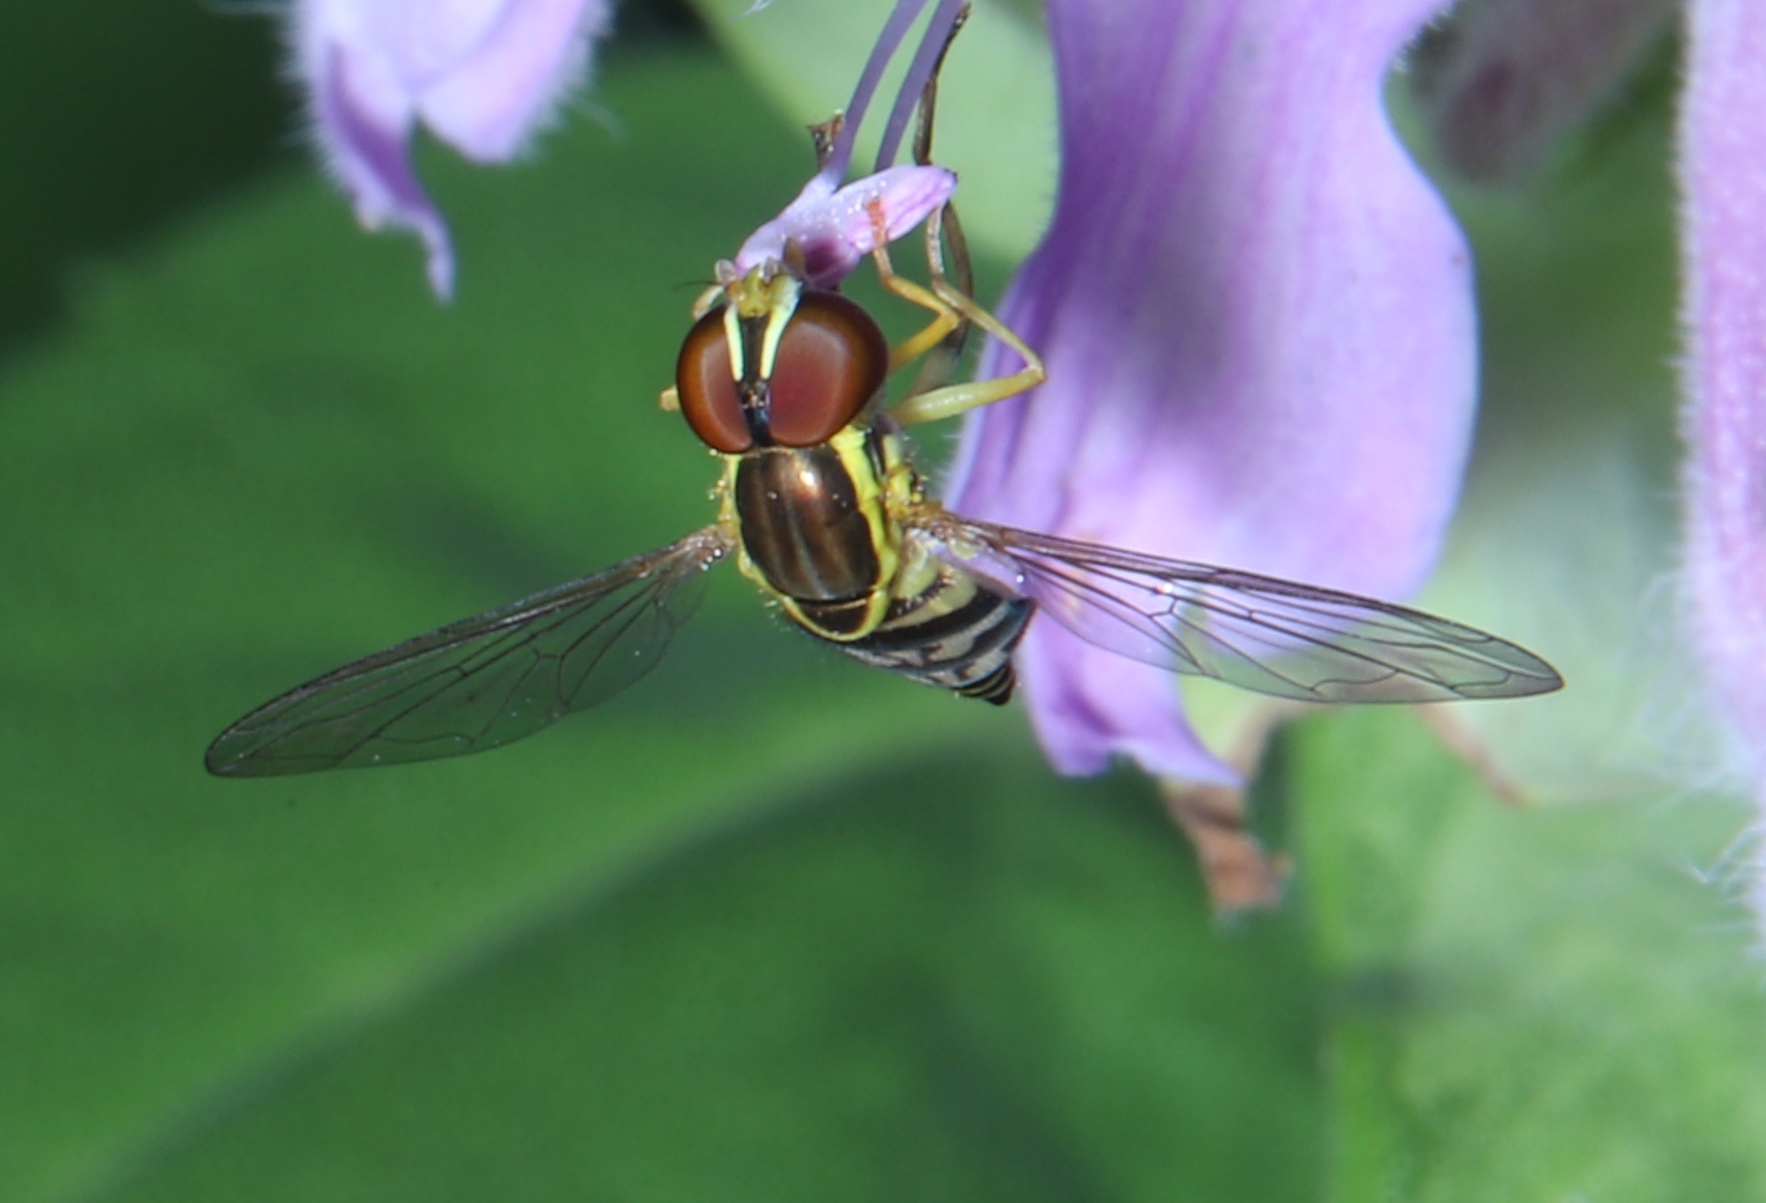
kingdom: Animalia
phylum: Arthropoda
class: Insecta
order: Diptera
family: Syrphidae
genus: Toxomerus
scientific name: Toxomerus geminatus
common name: Eastern calligrapher
